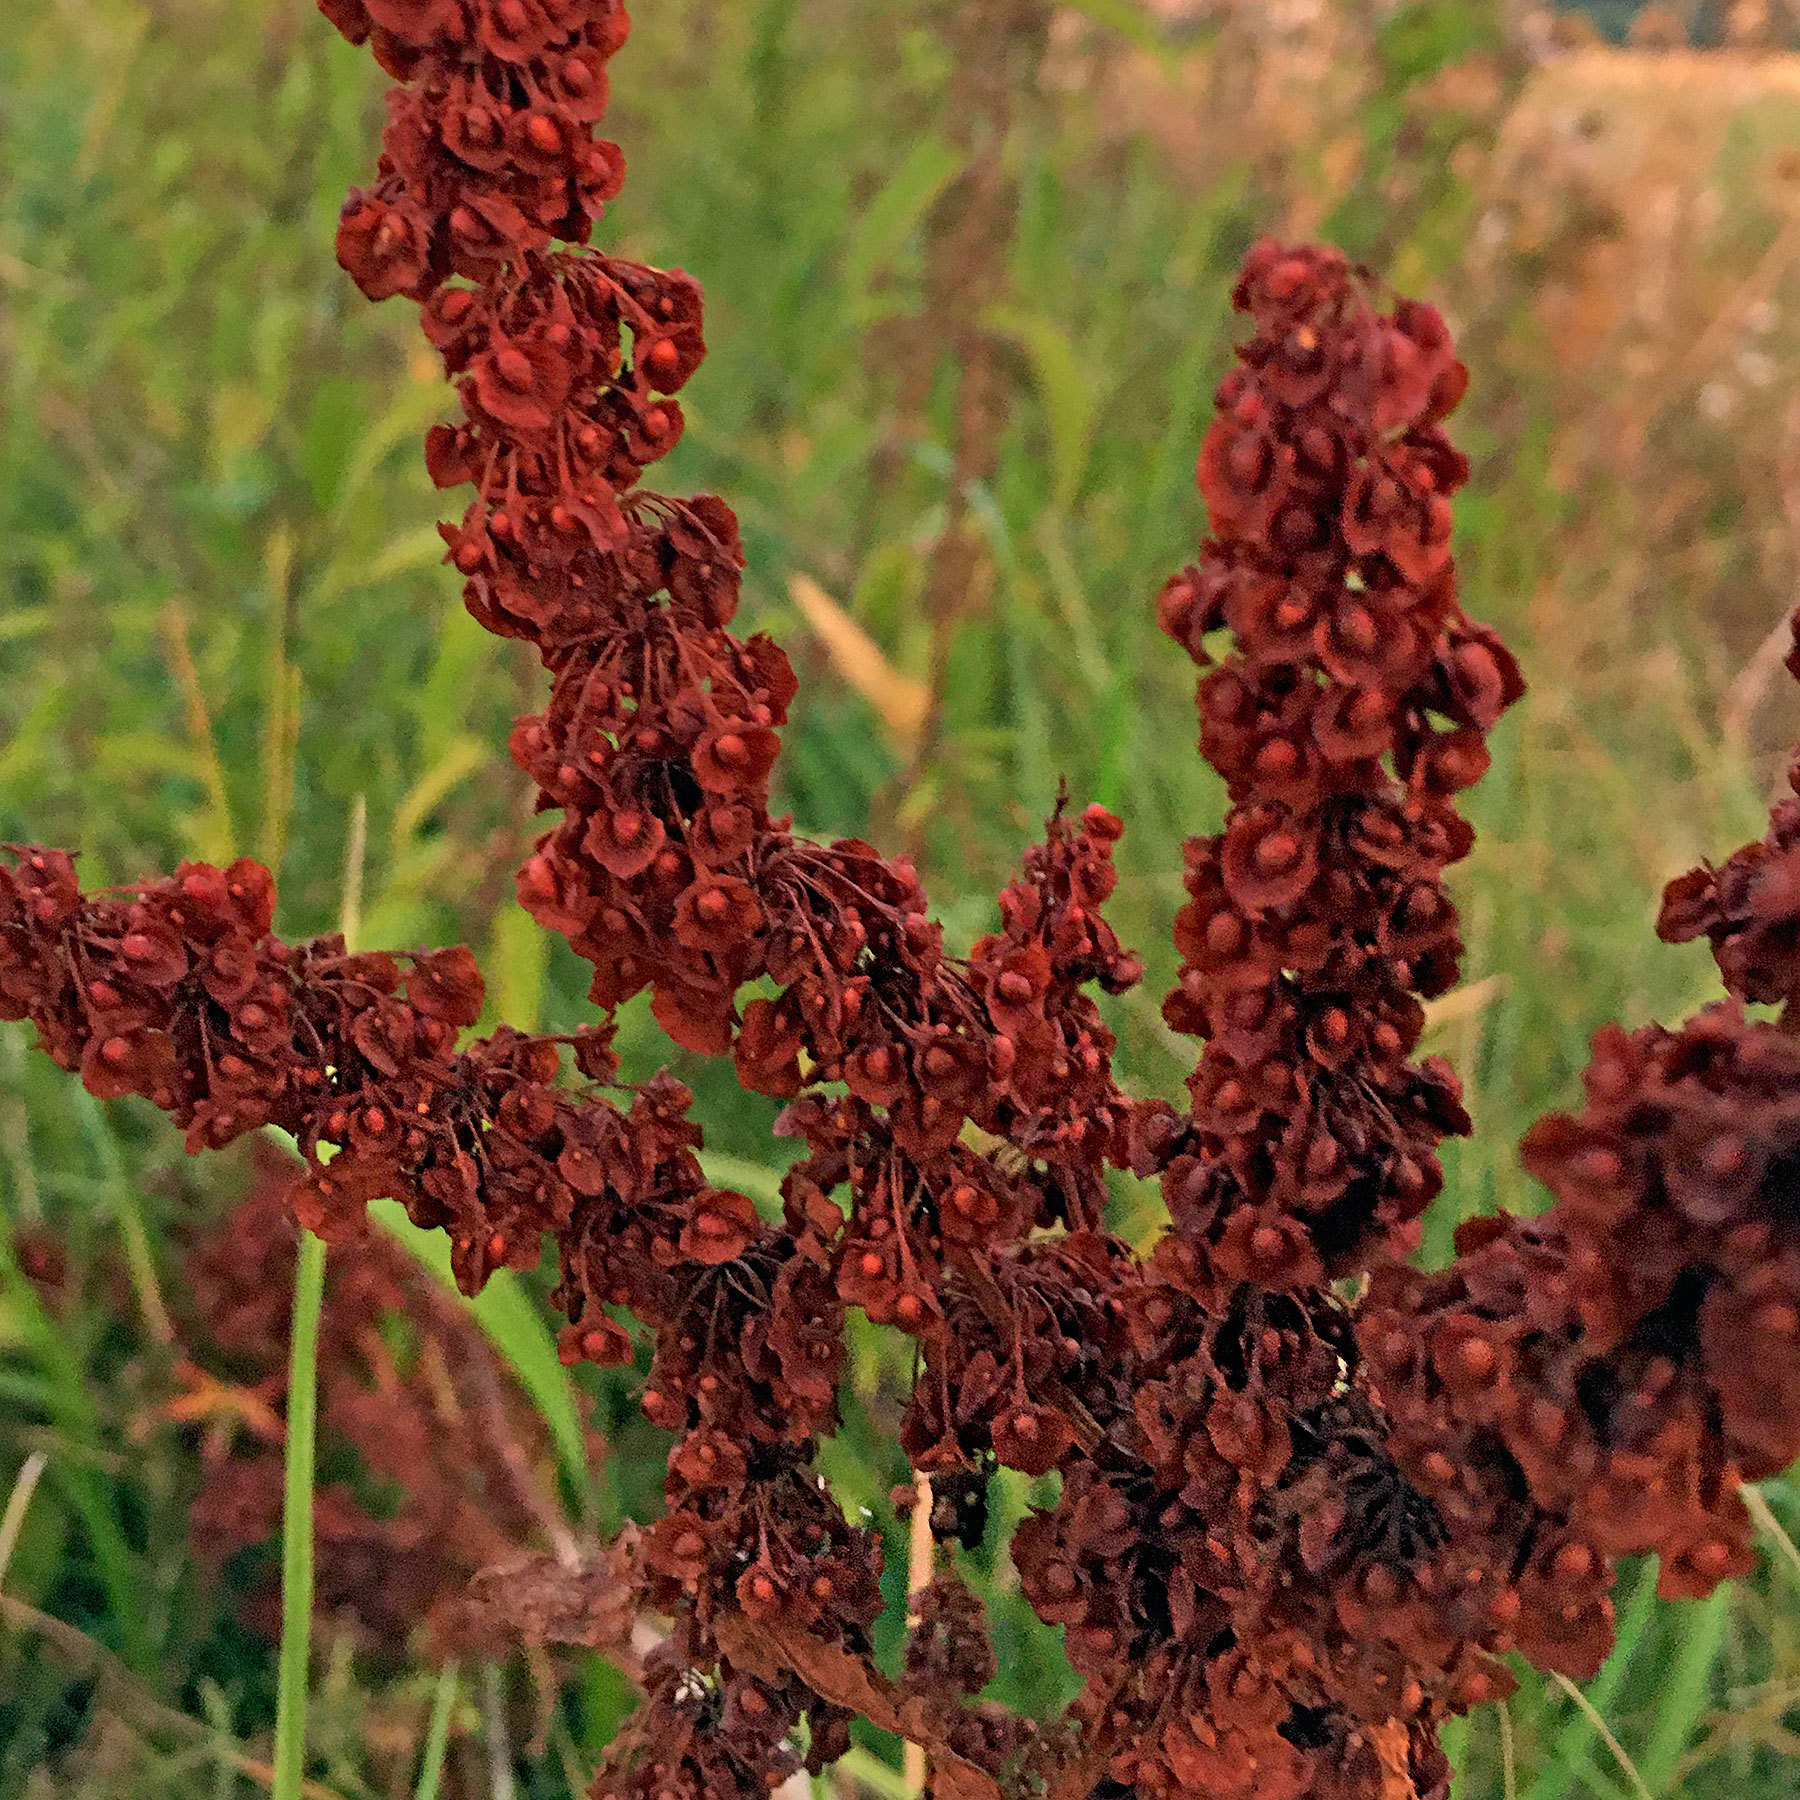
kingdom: Plantae
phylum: Tracheophyta
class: Magnoliopsida
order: Caryophyllales
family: Polygonaceae
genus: Rumex
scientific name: Rumex crispus
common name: Curled dock
